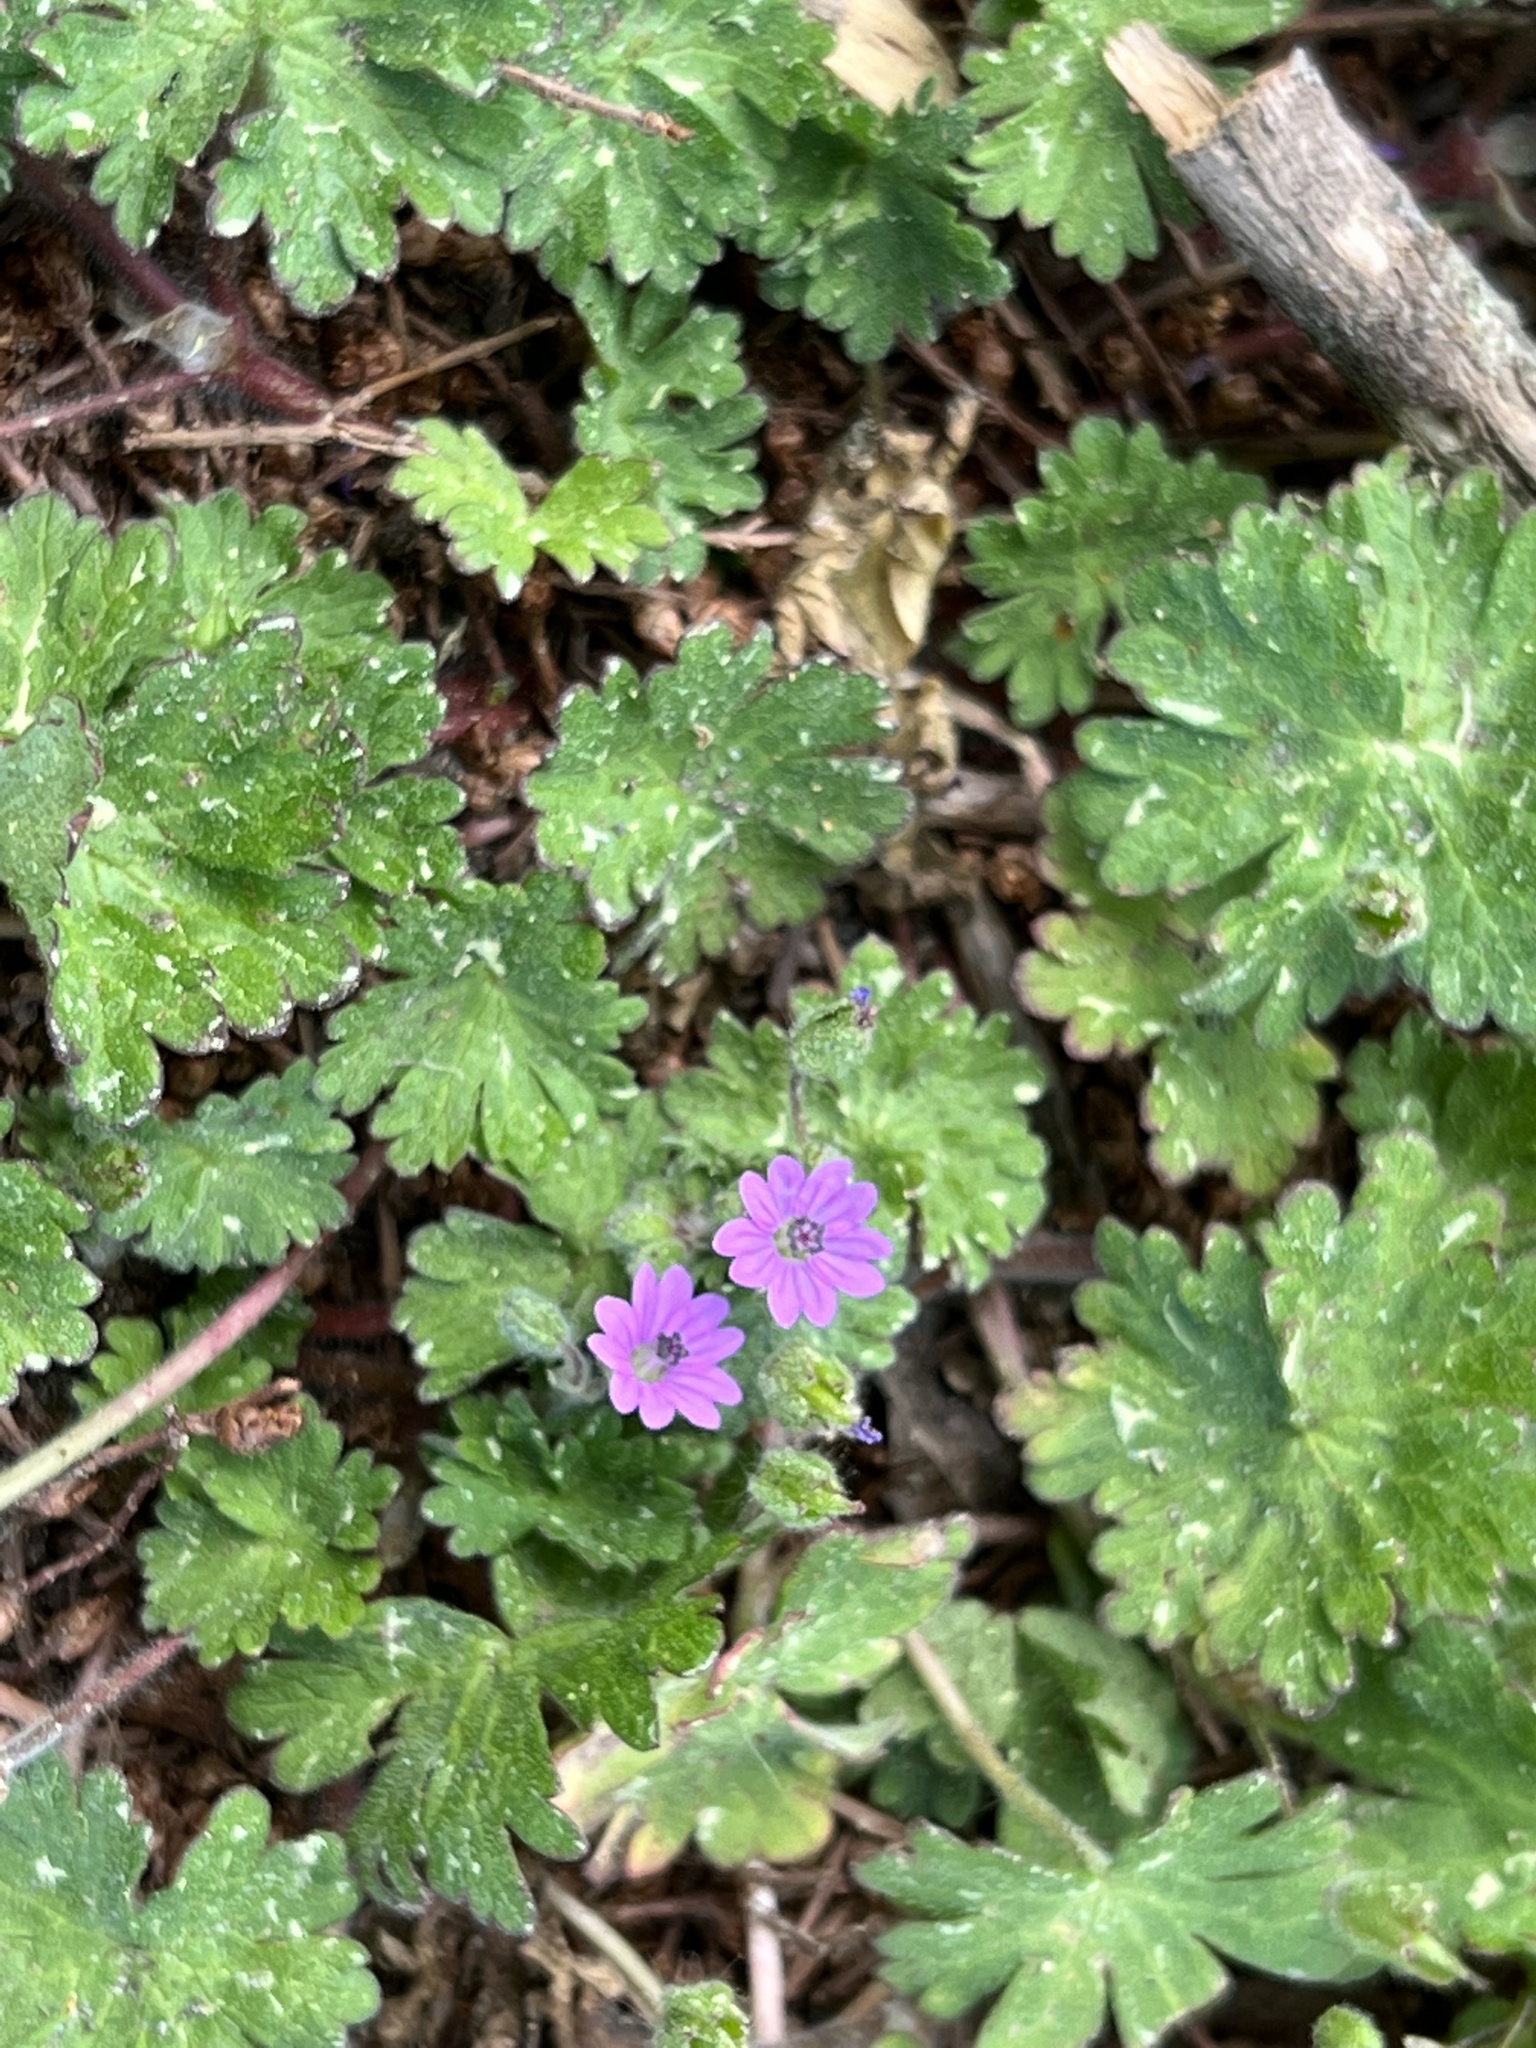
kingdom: Plantae
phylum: Tracheophyta
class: Magnoliopsida
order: Geraniales
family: Geraniaceae
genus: Geranium
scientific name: Geranium molle
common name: Dove's-foot crane's-bill
